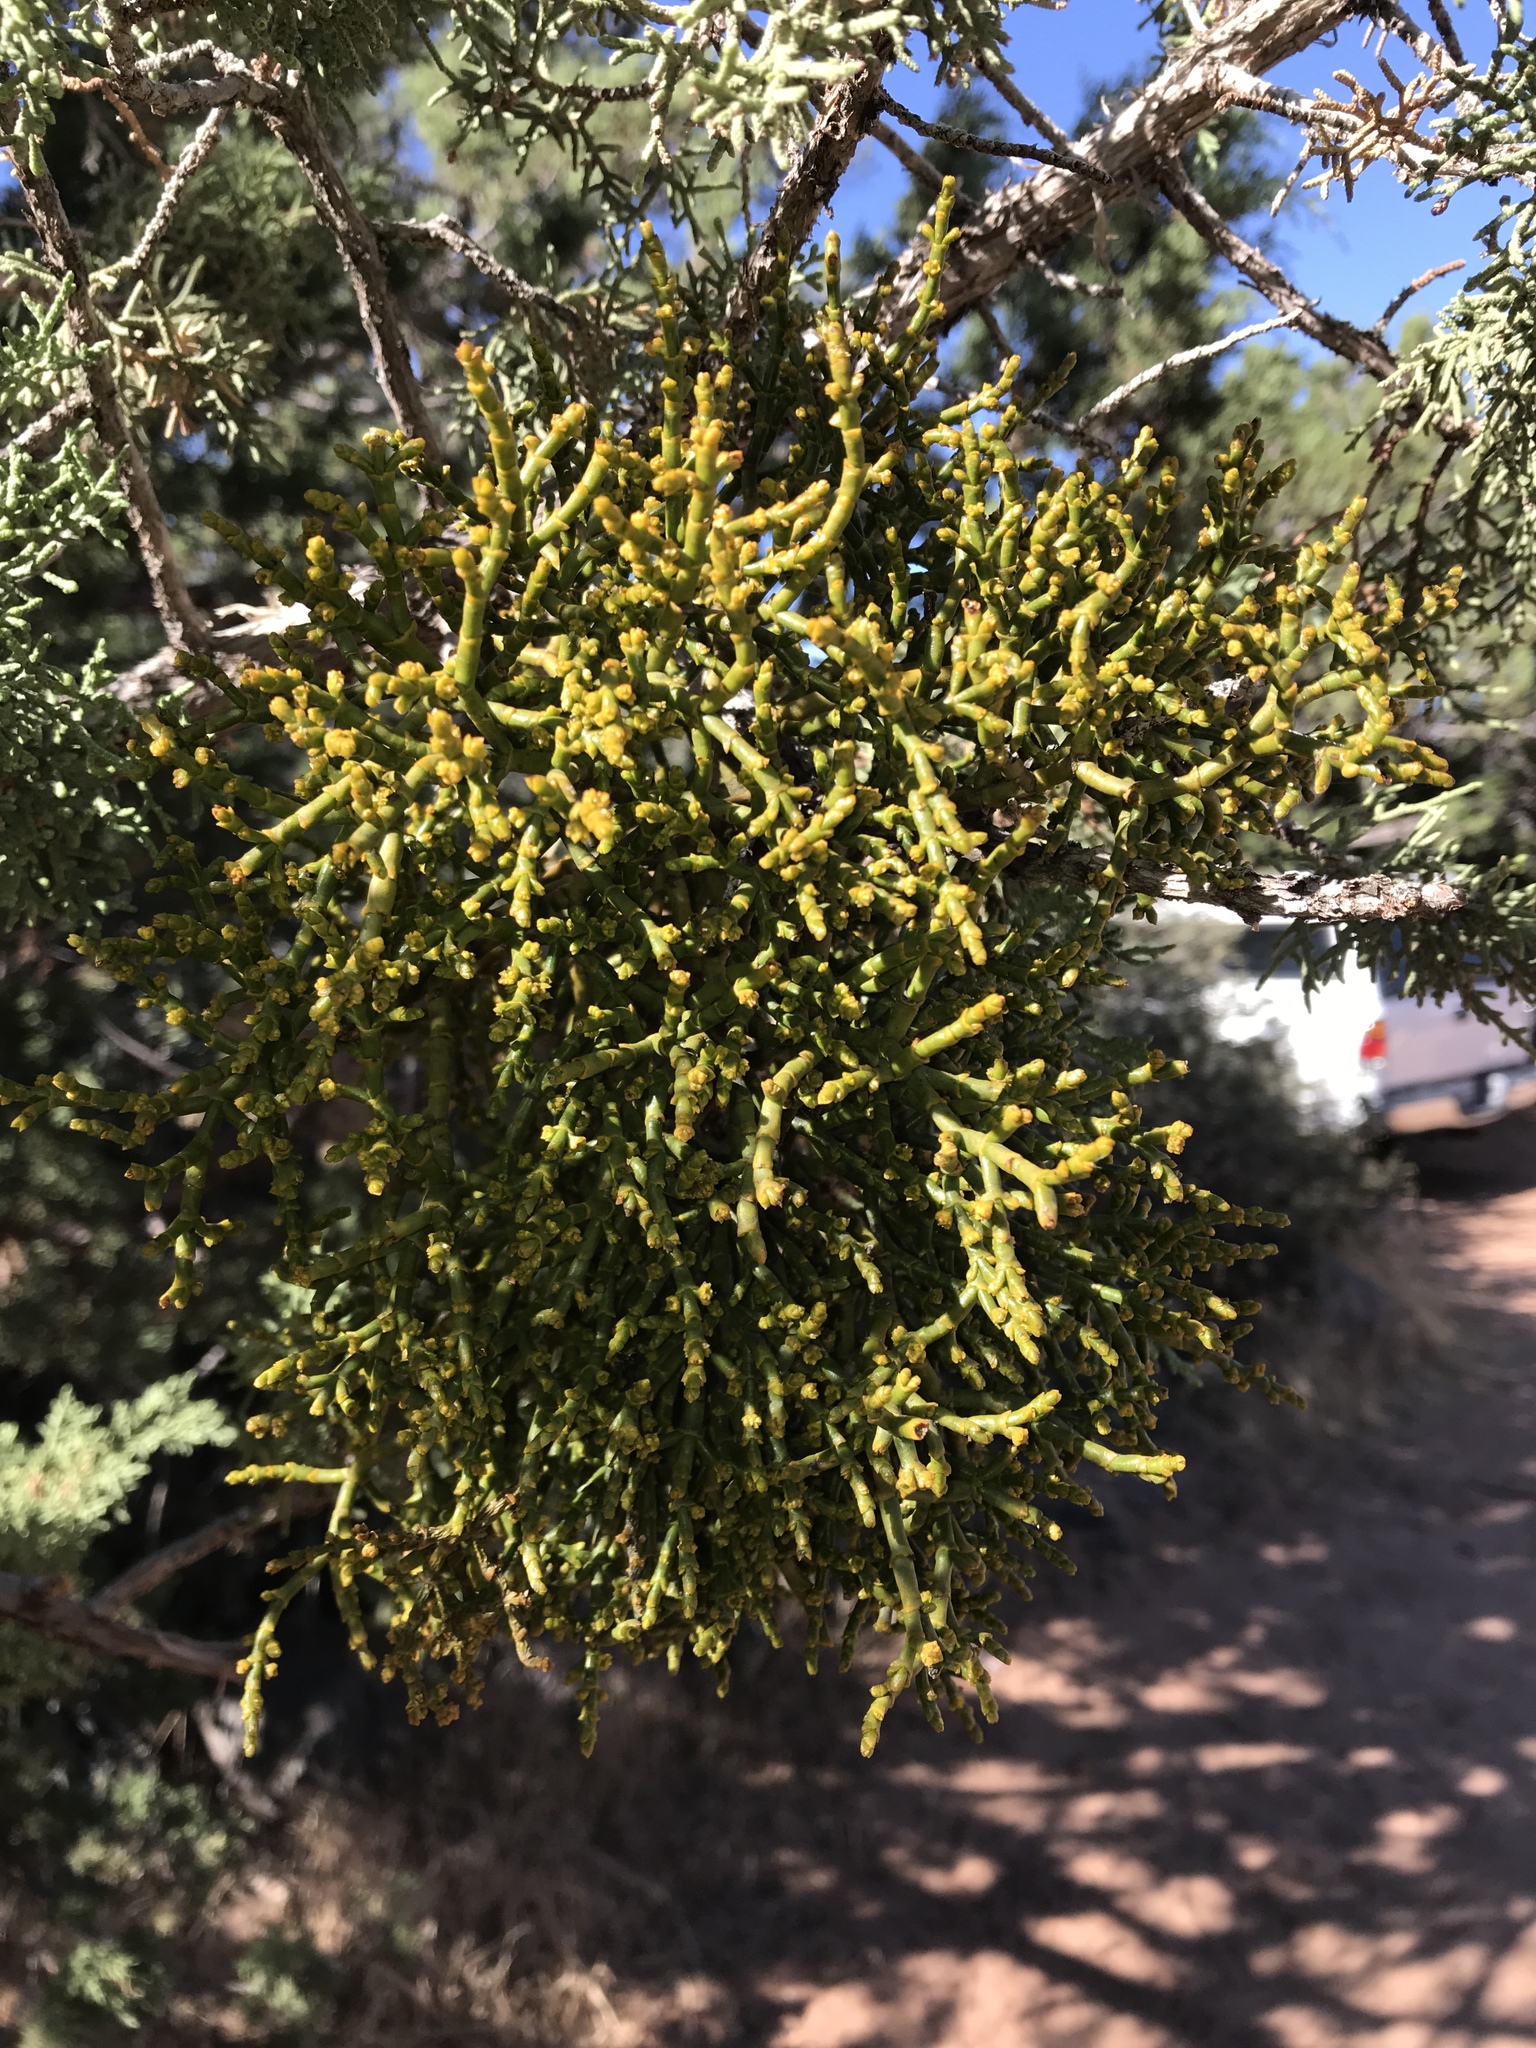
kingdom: Plantae
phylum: Tracheophyta
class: Magnoliopsida
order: Santalales
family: Viscaceae
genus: Phoradendron
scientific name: Phoradendron juniperinum
